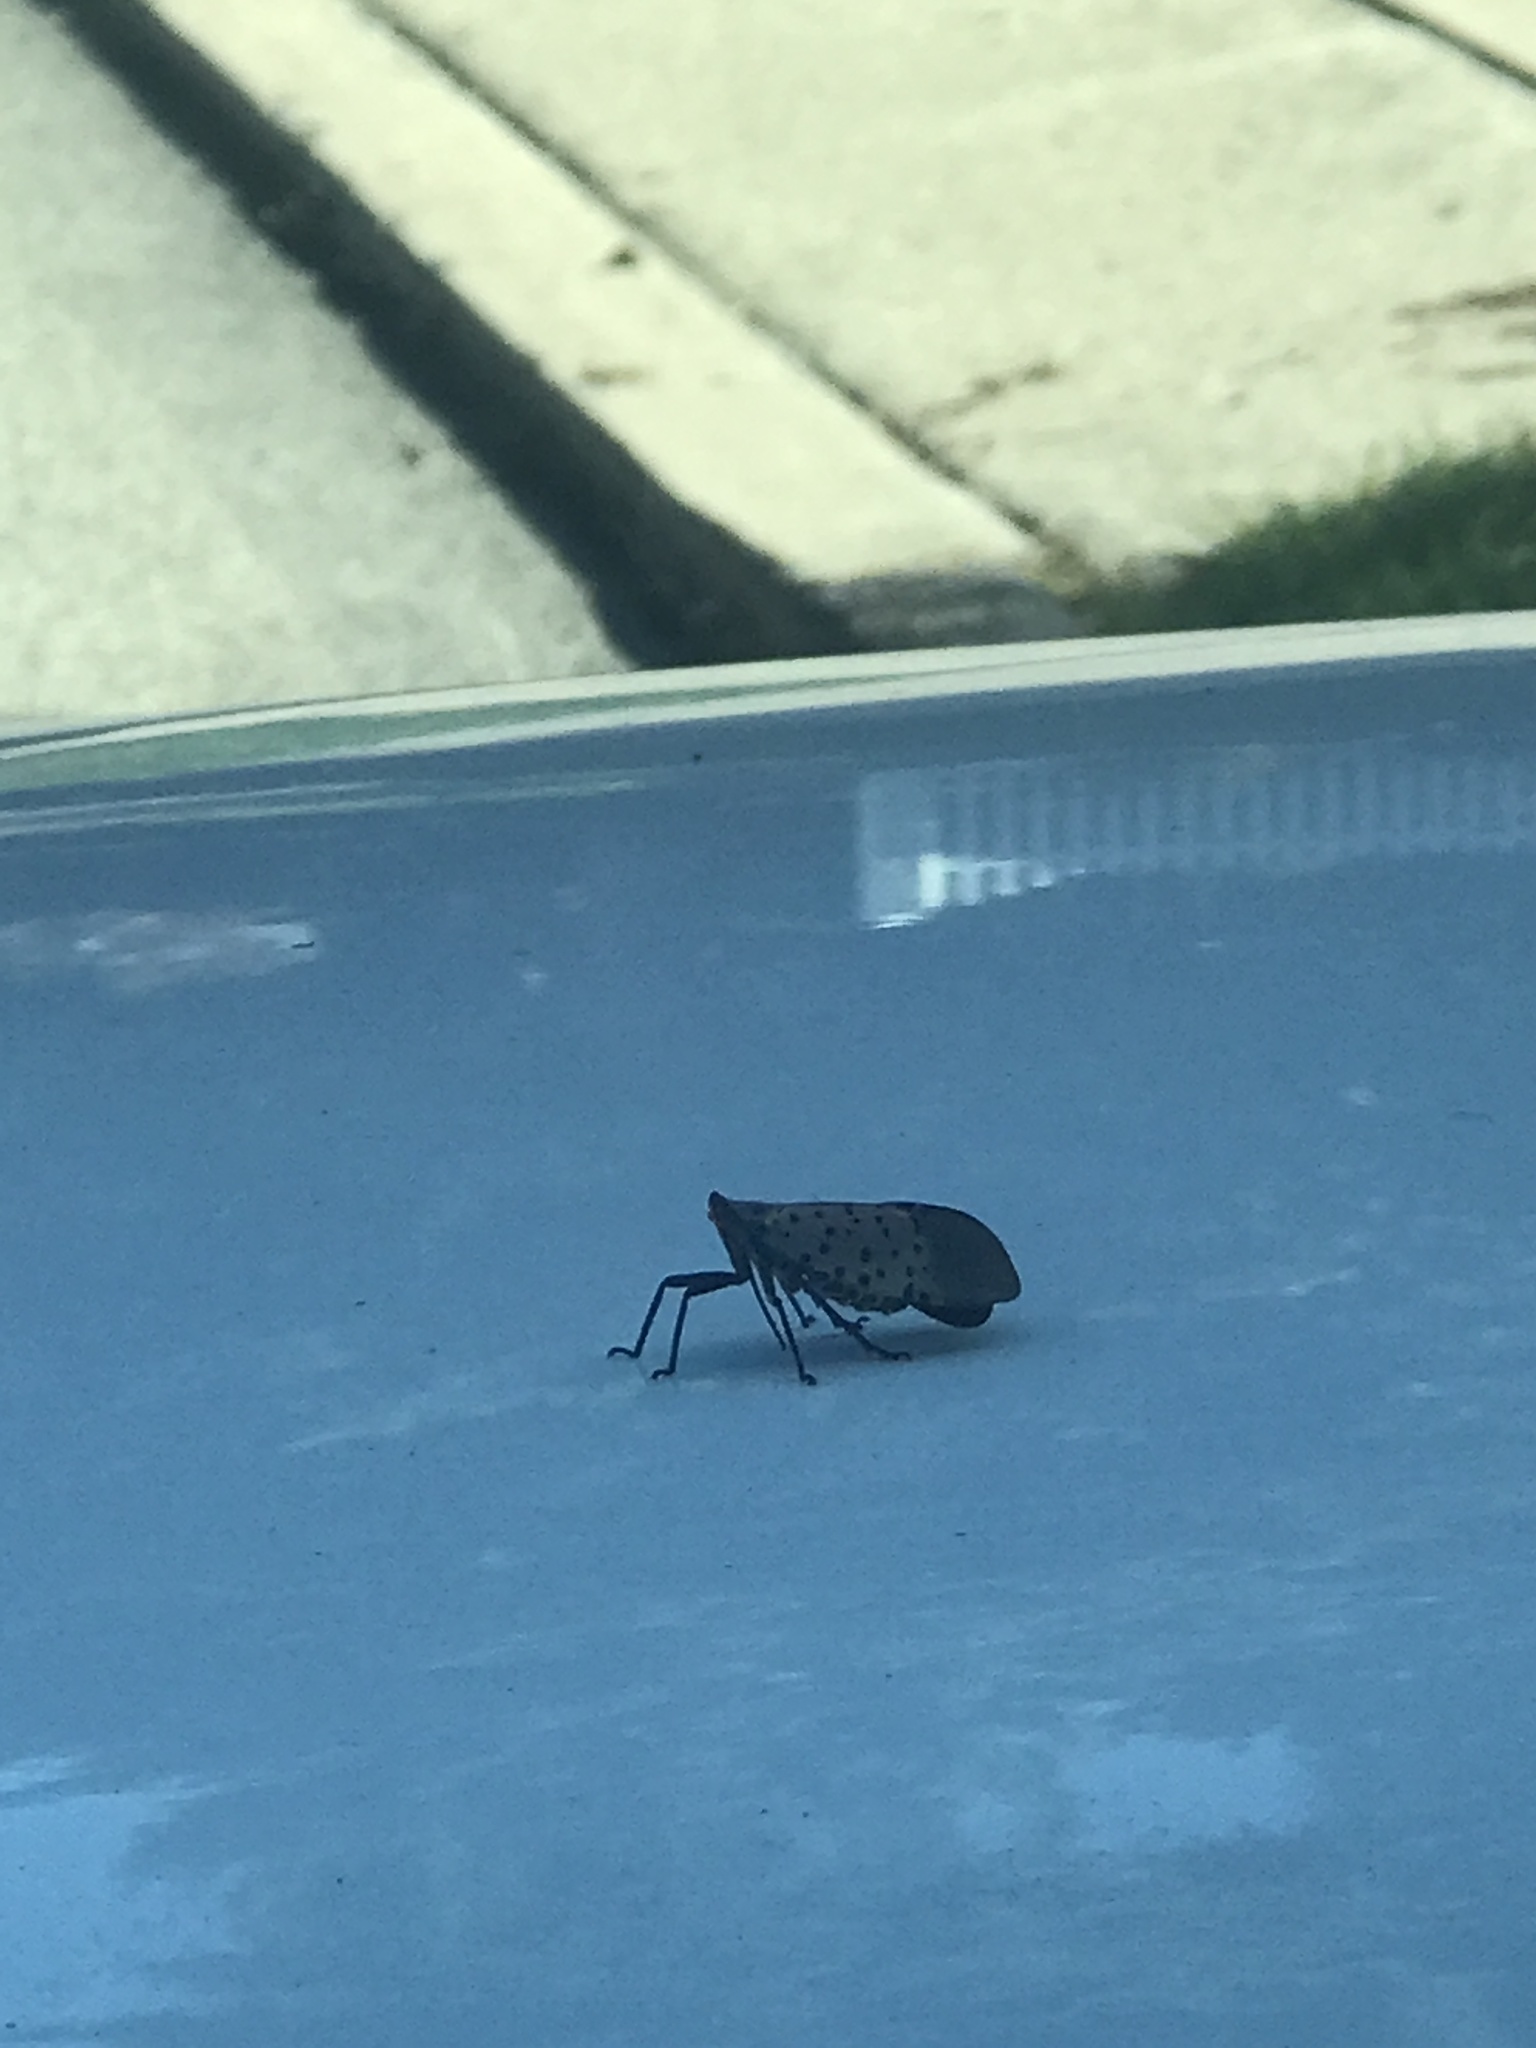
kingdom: Animalia
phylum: Arthropoda
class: Insecta
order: Hemiptera
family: Fulgoridae
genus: Lycorma
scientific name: Lycorma delicatula
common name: Spotted lanternfly
